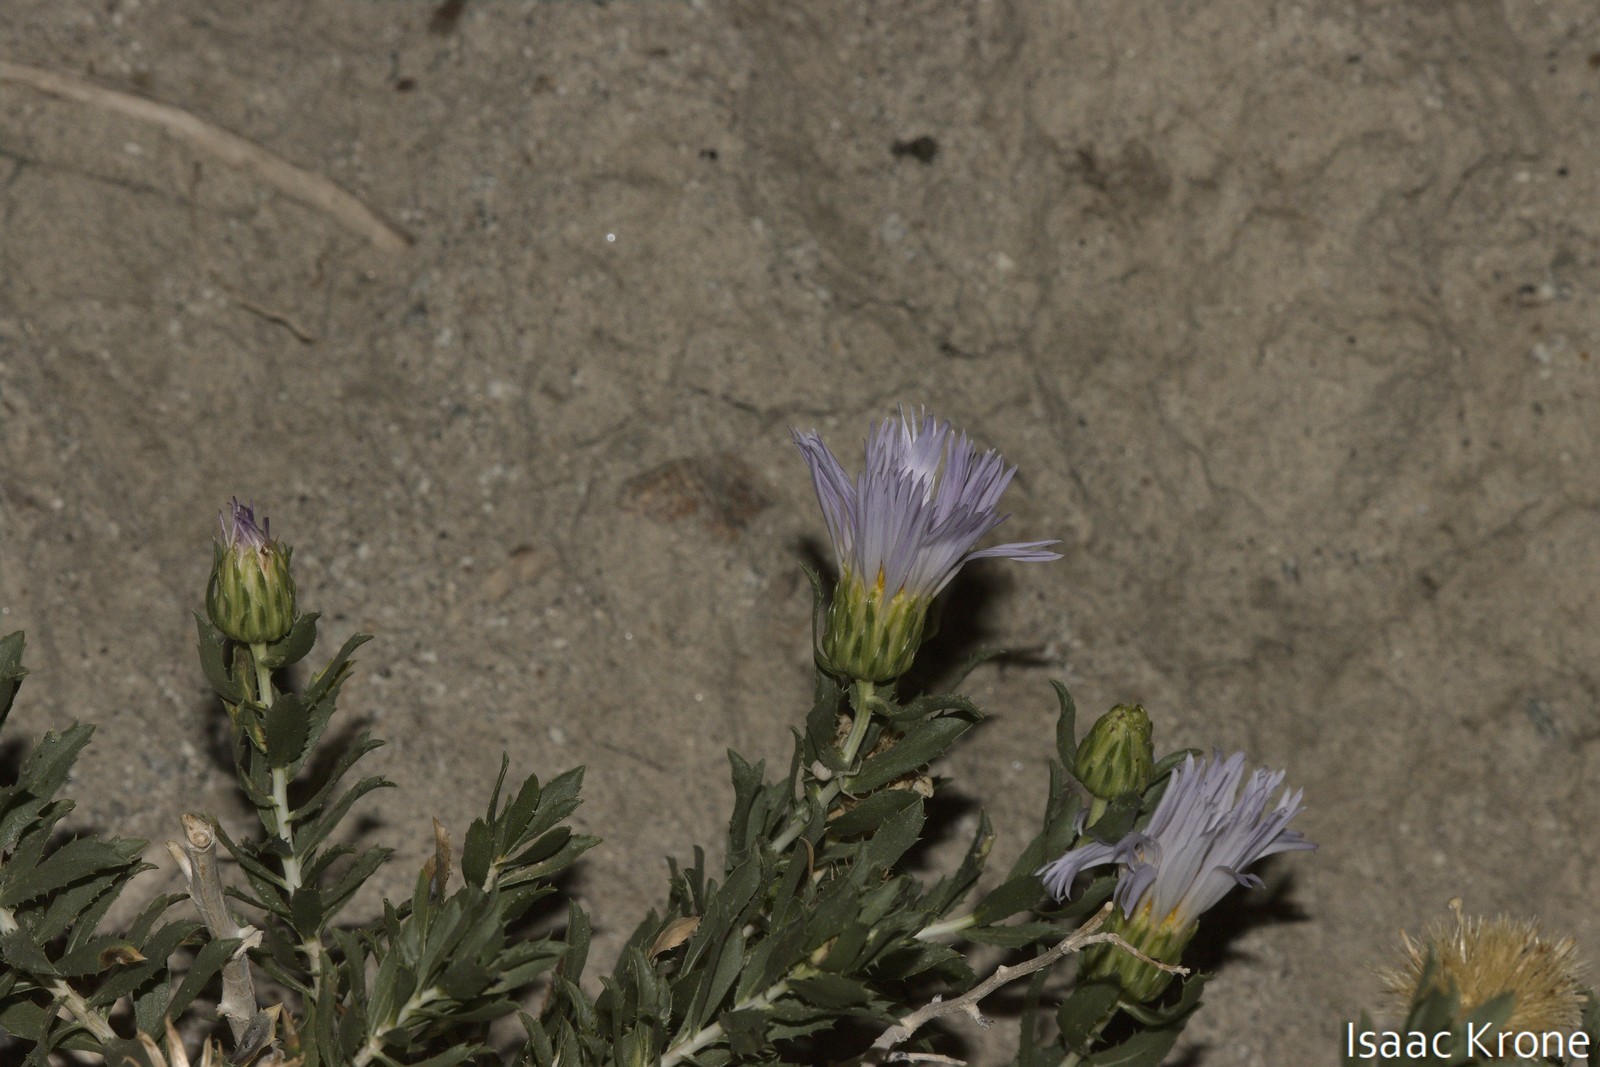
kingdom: Plantae
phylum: Tracheophyta
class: Magnoliopsida
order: Asterales
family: Asteraceae
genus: Xylorhiza
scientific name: Xylorhiza orcuttii
